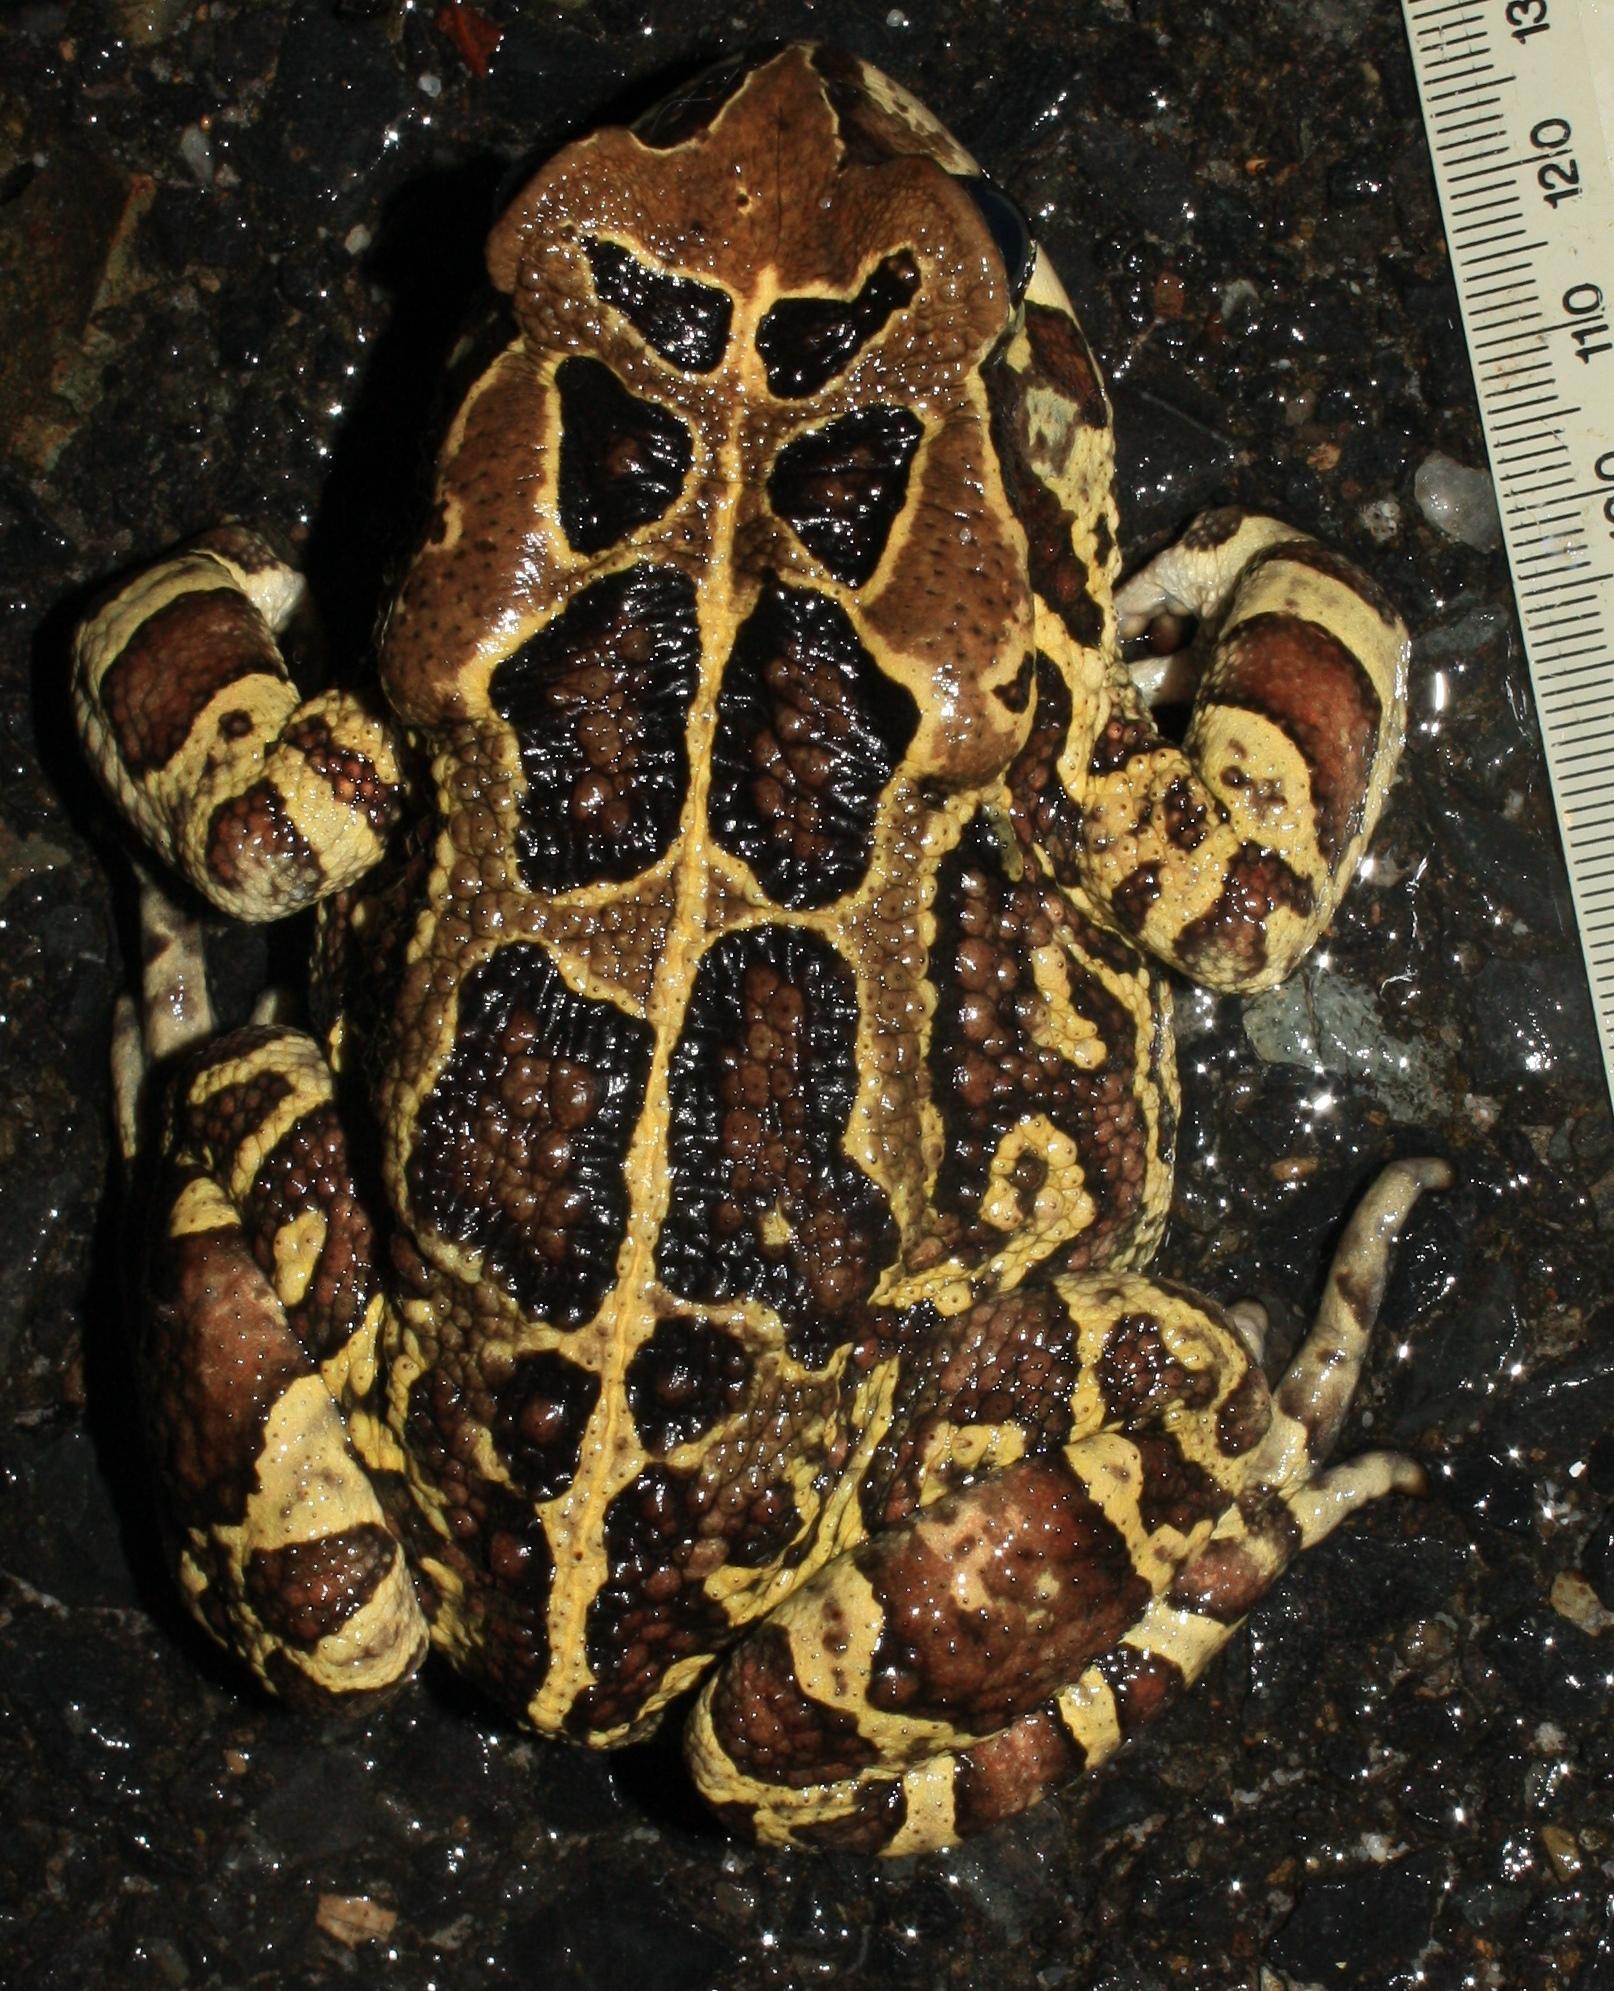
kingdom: Animalia
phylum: Chordata
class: Amphibia
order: Anura
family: Bufonidae
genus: Sclerophrys
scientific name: Sclerophrys pantherina
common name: Panther toad
